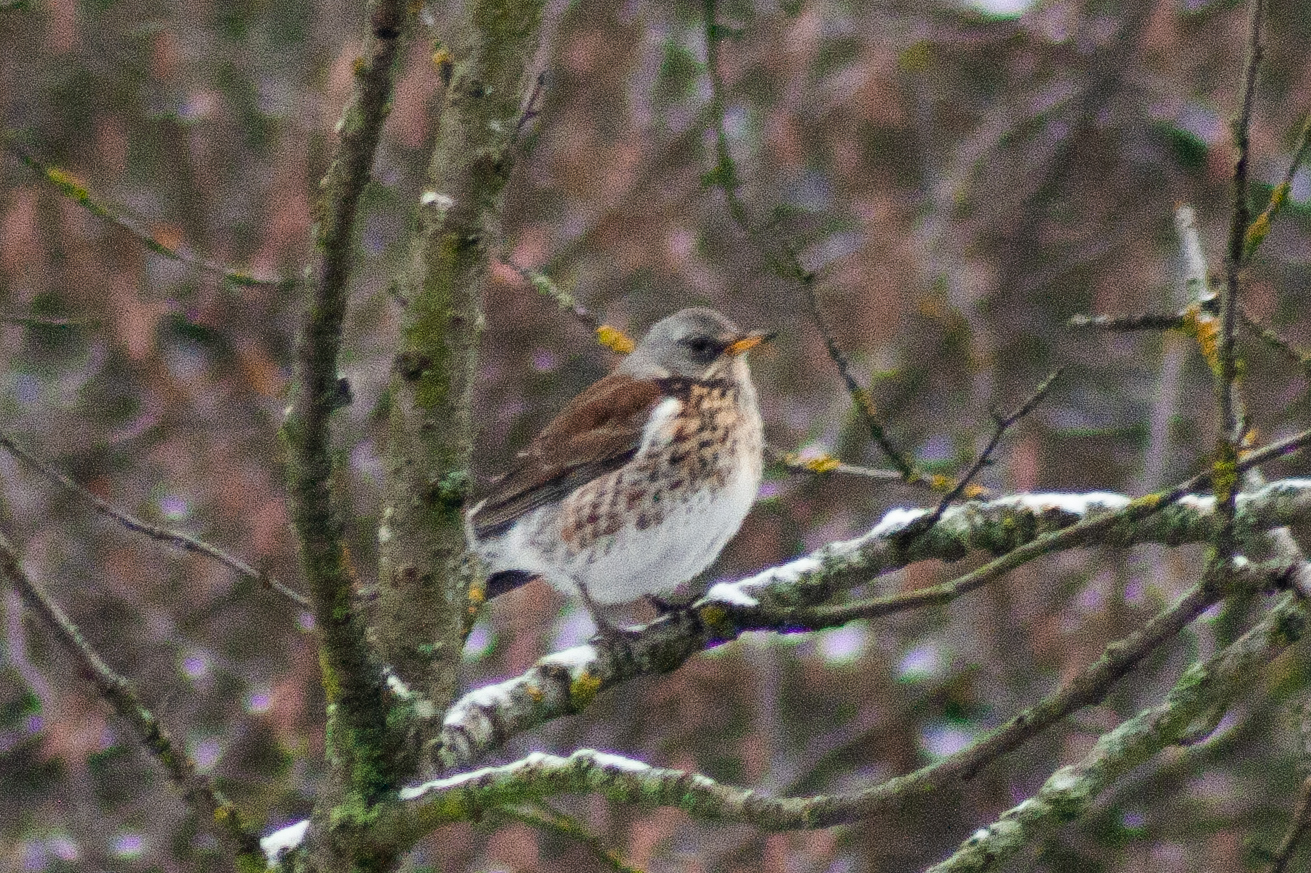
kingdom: Animalia
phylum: Chordata
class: Aves
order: Passeriformes
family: Turdidae
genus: Turdus
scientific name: Turdus pilaris
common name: Fieldfare
